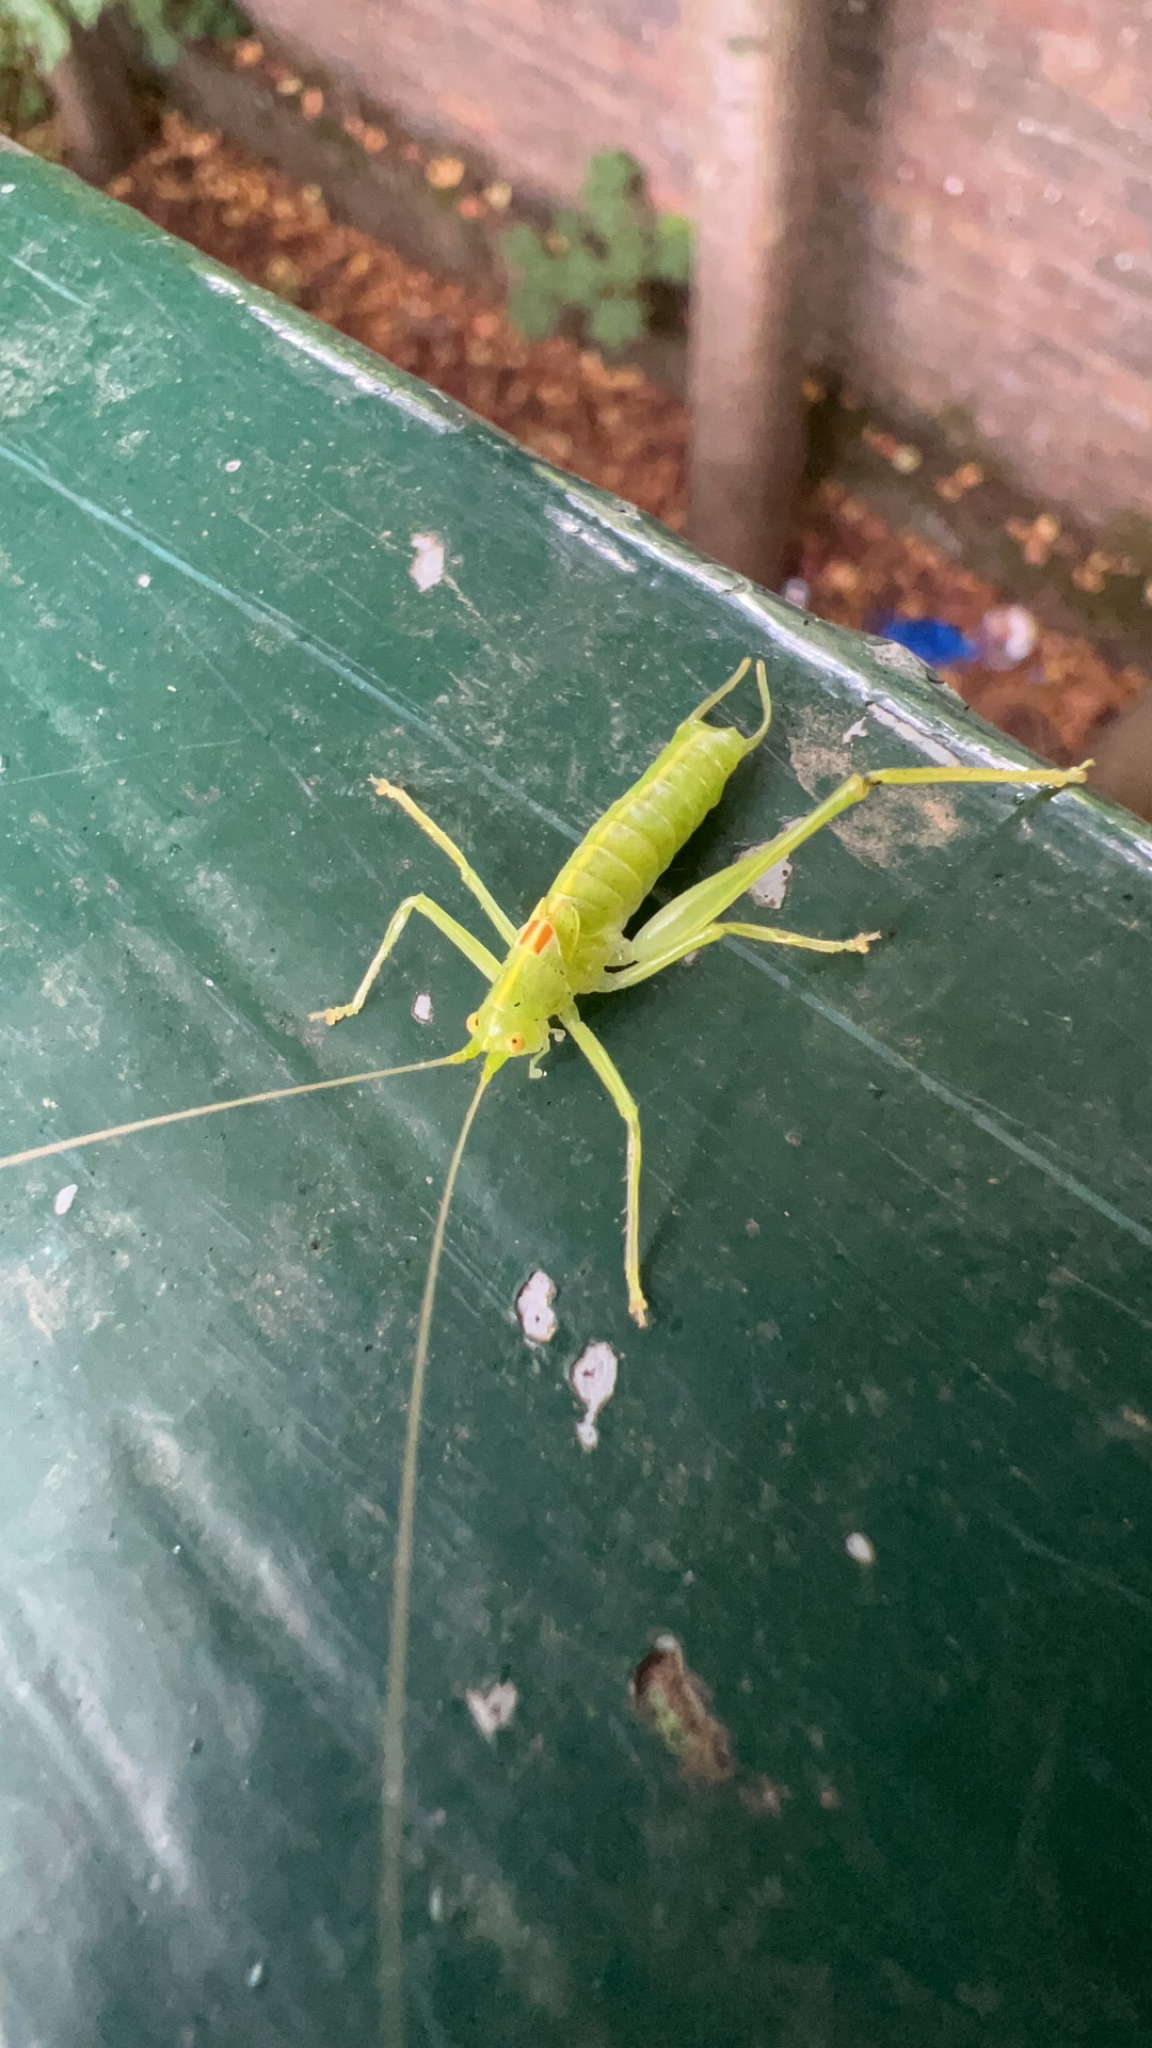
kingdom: Animalia
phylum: Arthropoda
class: Insecta
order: Orthoptera
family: Tettigoniidae
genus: Meconema
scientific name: Meconema meridionale
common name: Southern oak bush-cricket
